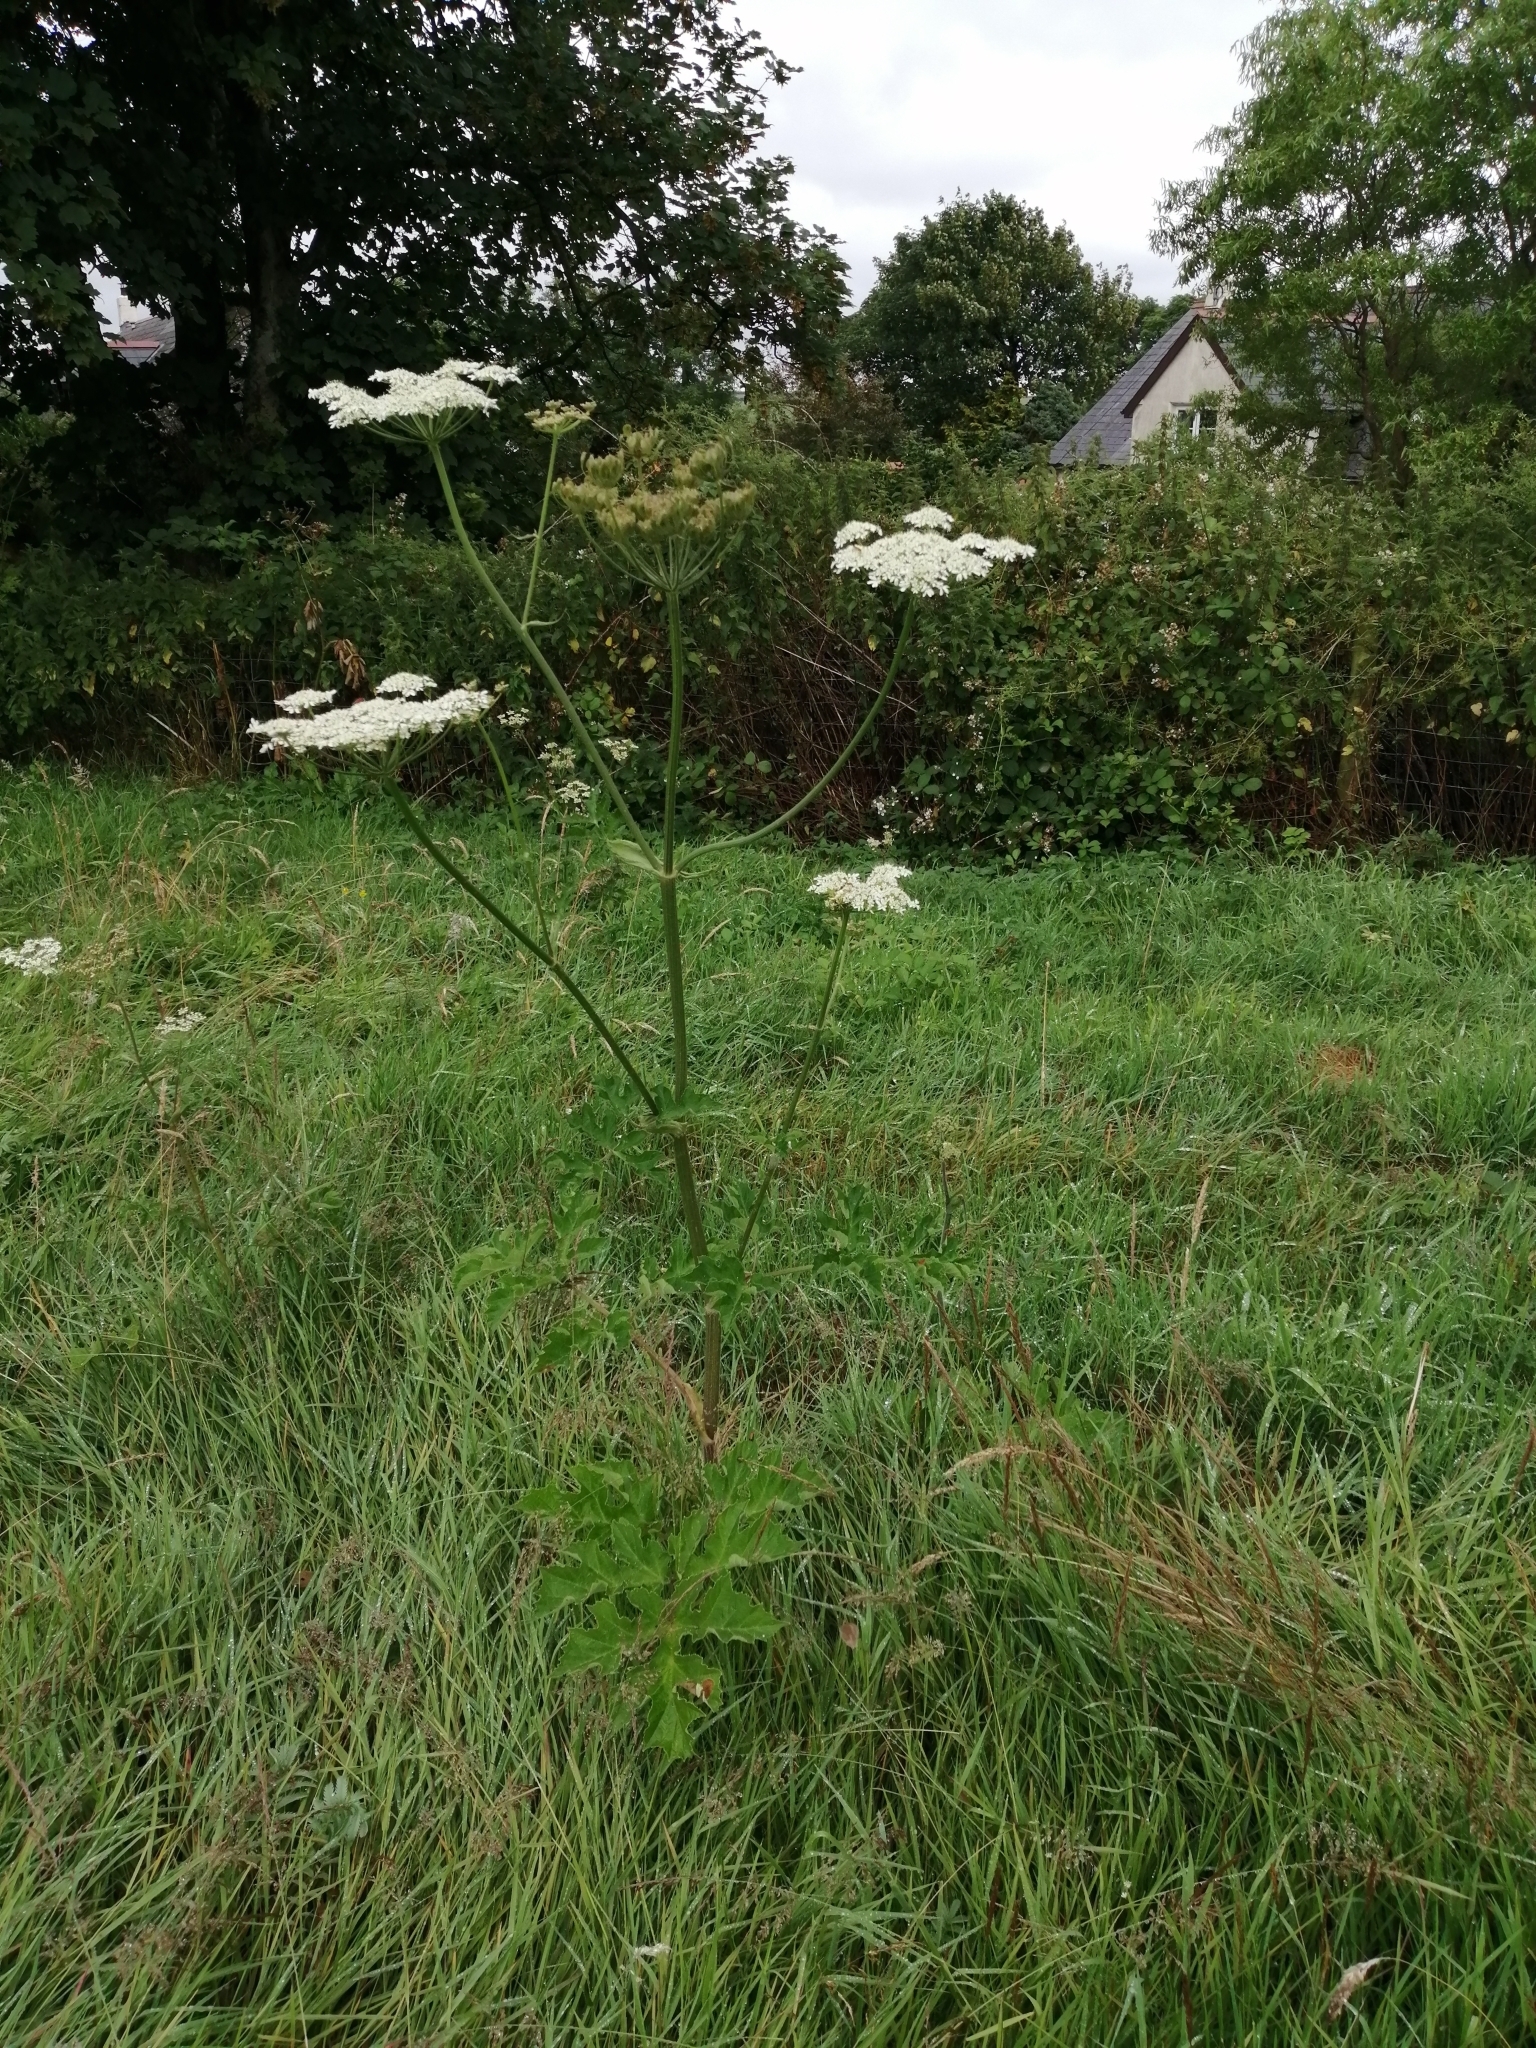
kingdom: Plantae
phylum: Tracheophyta
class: Magnoliopsida
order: Apiales
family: Apiaceae
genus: Heracleum
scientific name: Heracleum sphondylium
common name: Hogweed
